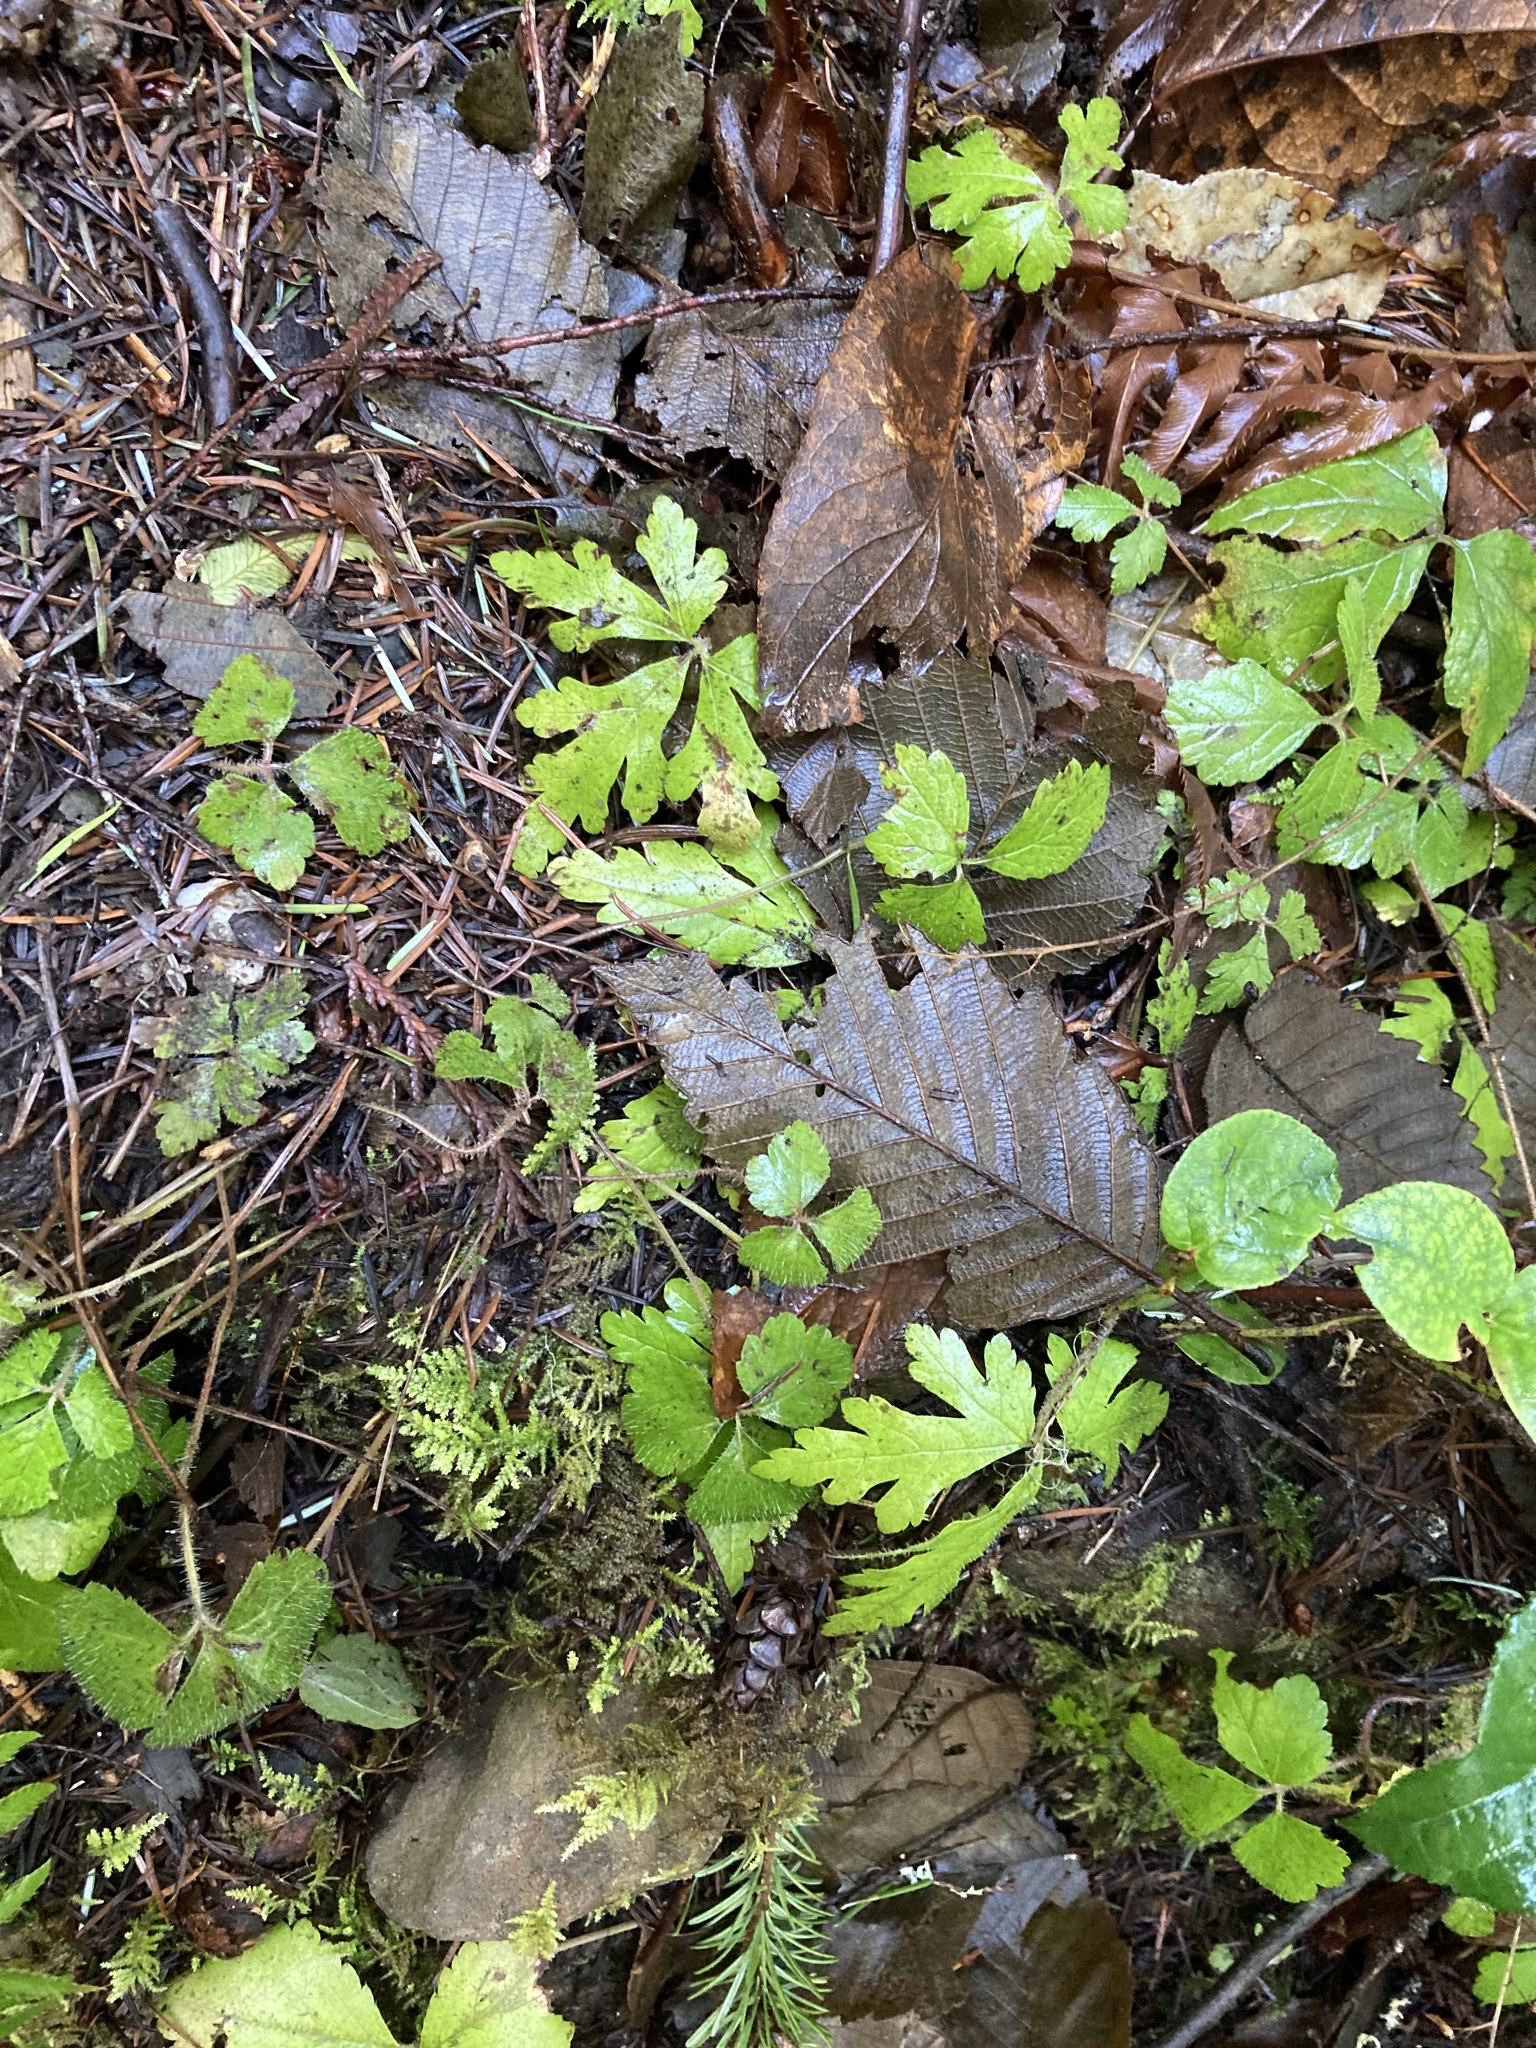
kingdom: Plantae
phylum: Tracheophyta
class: Magnoliopsida
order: Saxifragales
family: Saxifragaceae
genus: Tiarella
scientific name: Tiarella trifoliata
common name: Sugar-scoop
